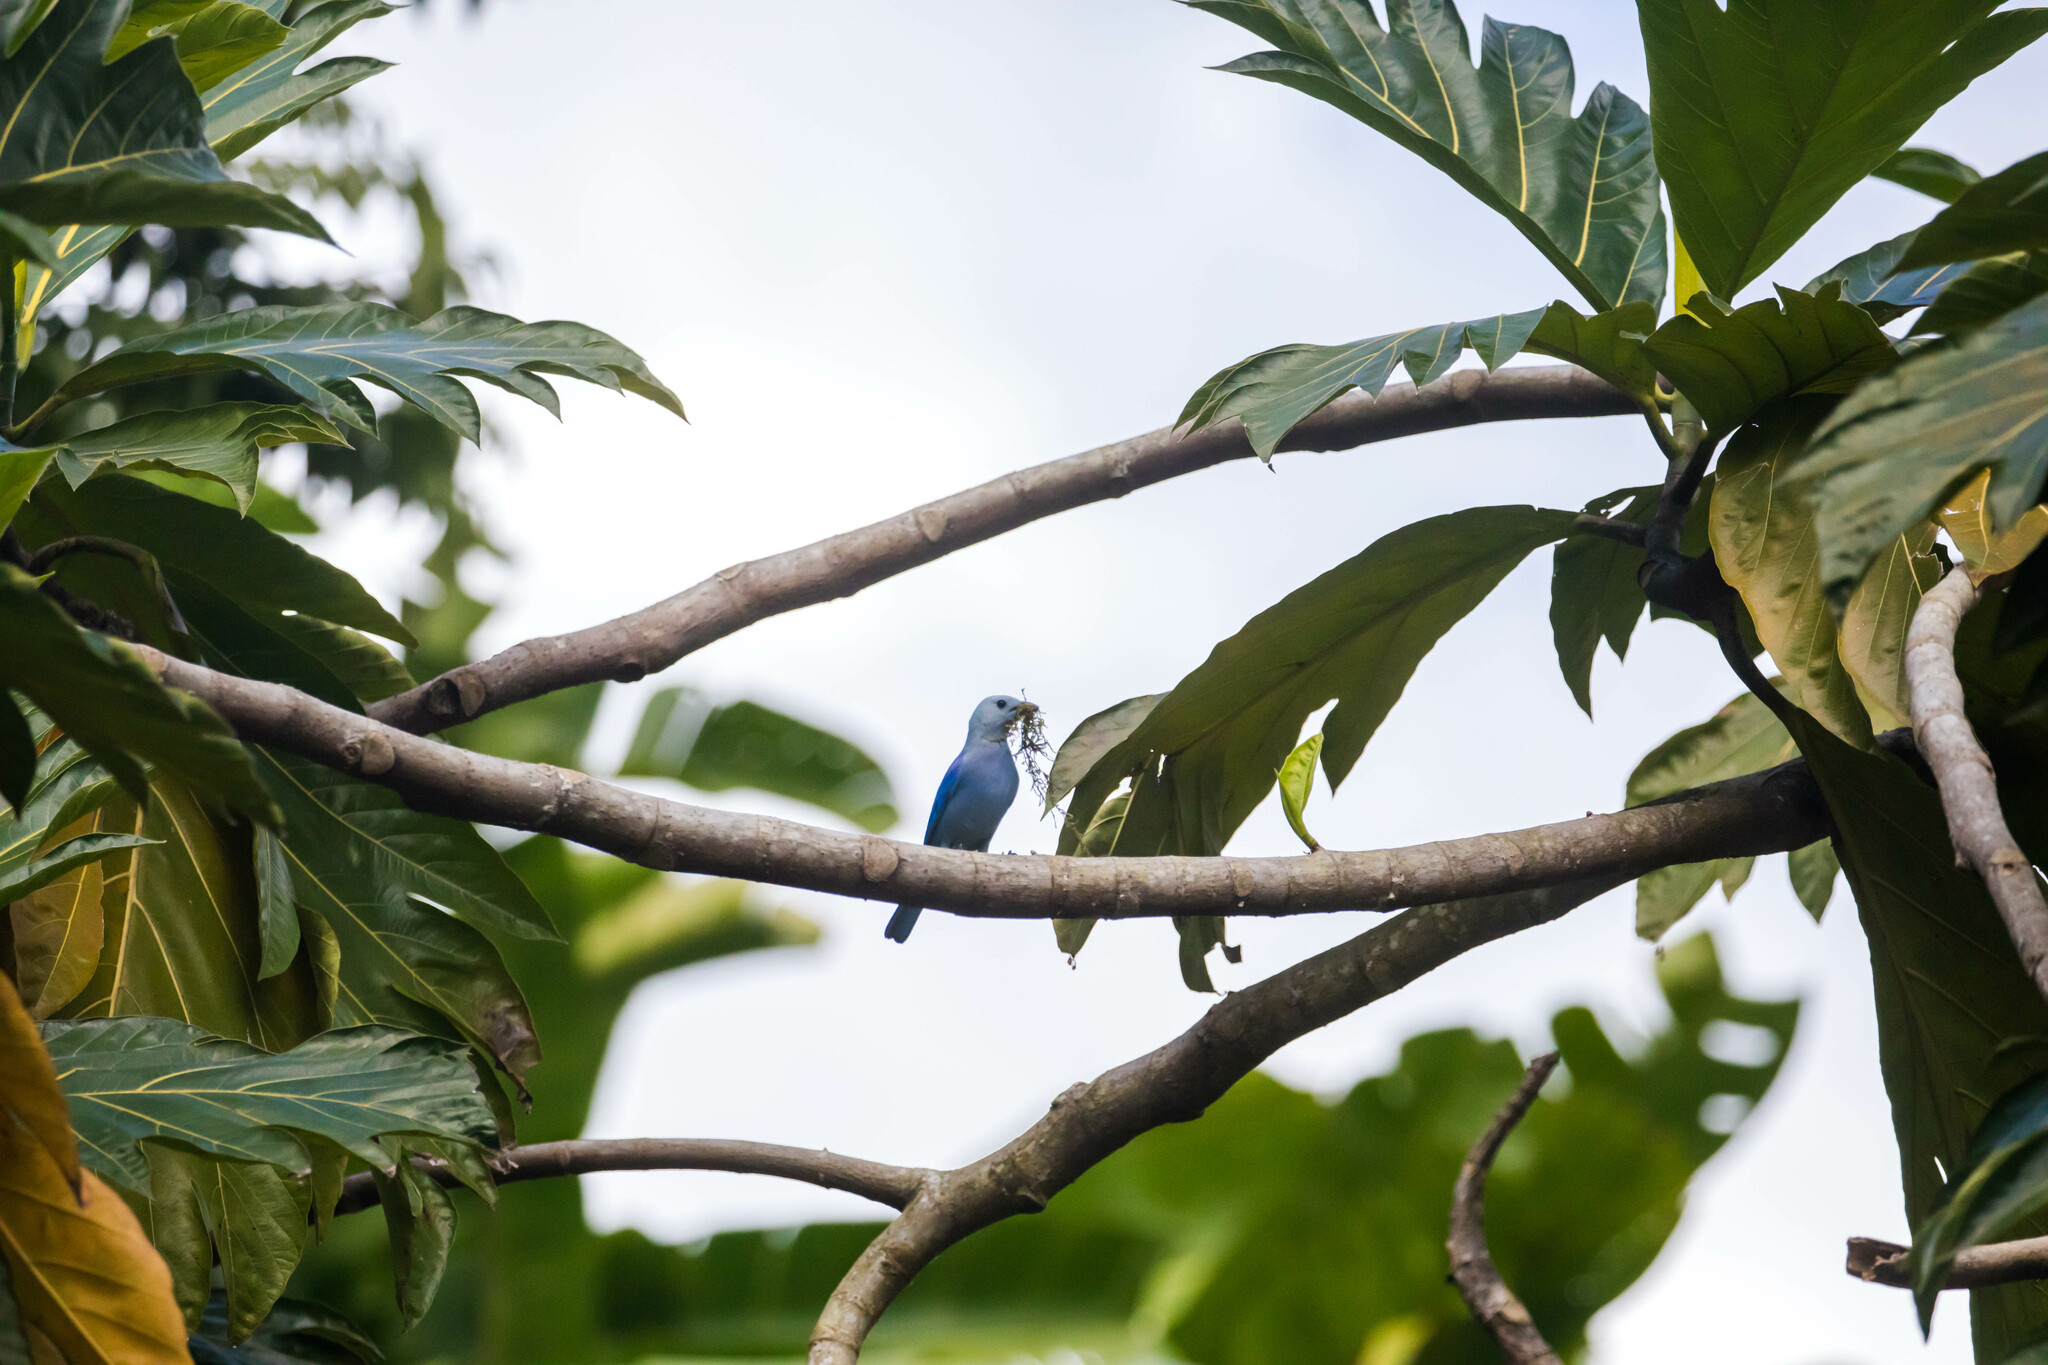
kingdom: Animalia
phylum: Chordata
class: Aves
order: Passeriformes
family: Thraupidae
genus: Thraupis
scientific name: Thraupis episcopus
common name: Blue-grey tanager
